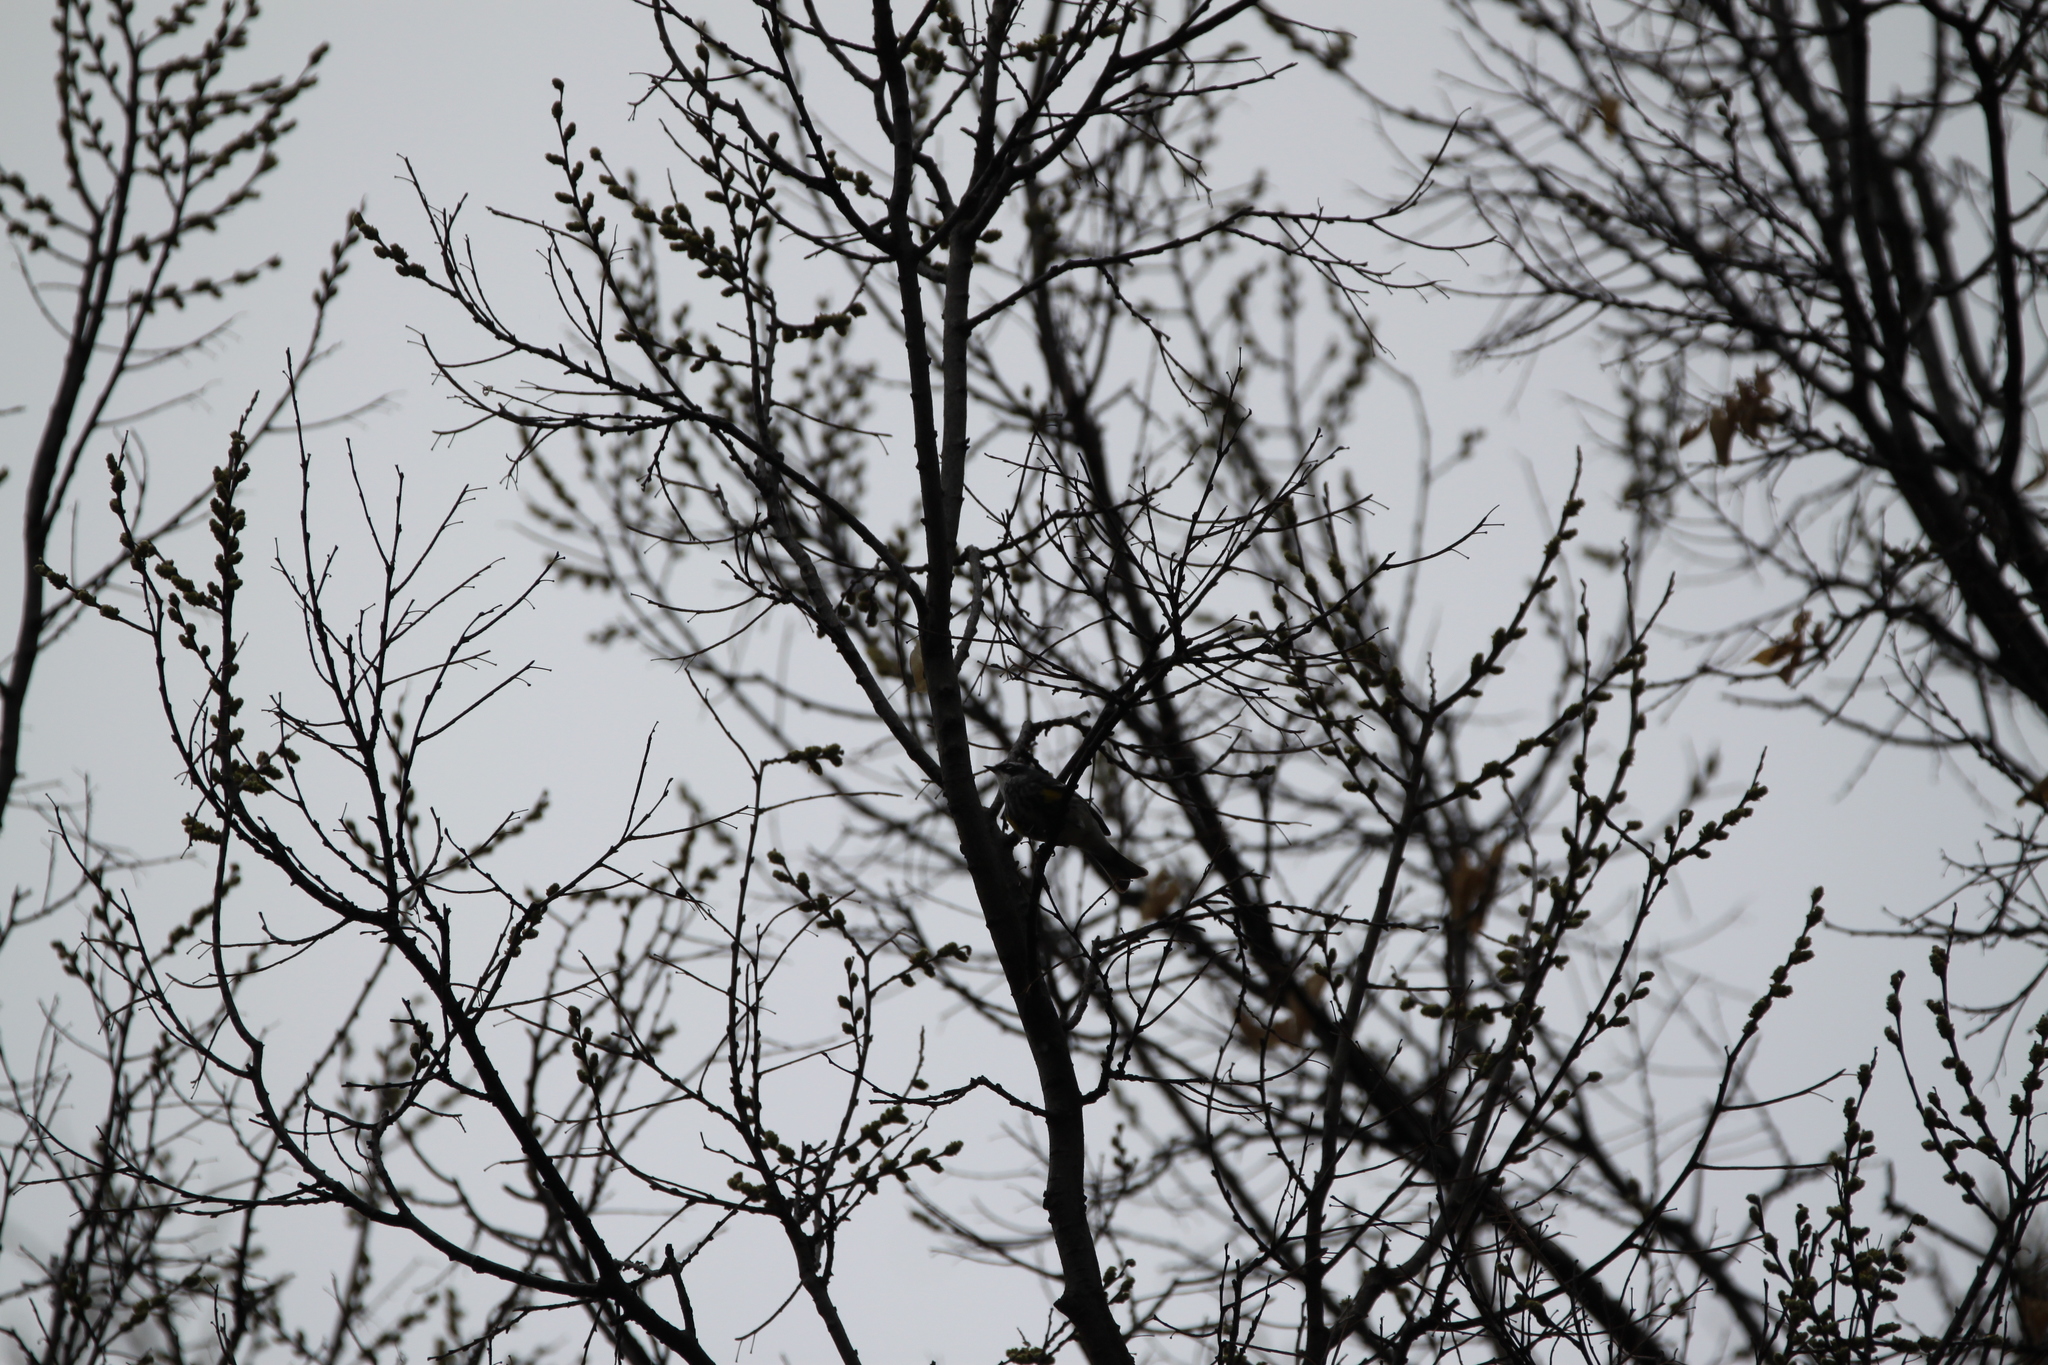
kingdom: Animalia
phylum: Chordata
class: Aves
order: Passeriformes
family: Parulidae
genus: Setophaga
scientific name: Setophaga coronata
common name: Myrtle warbler
